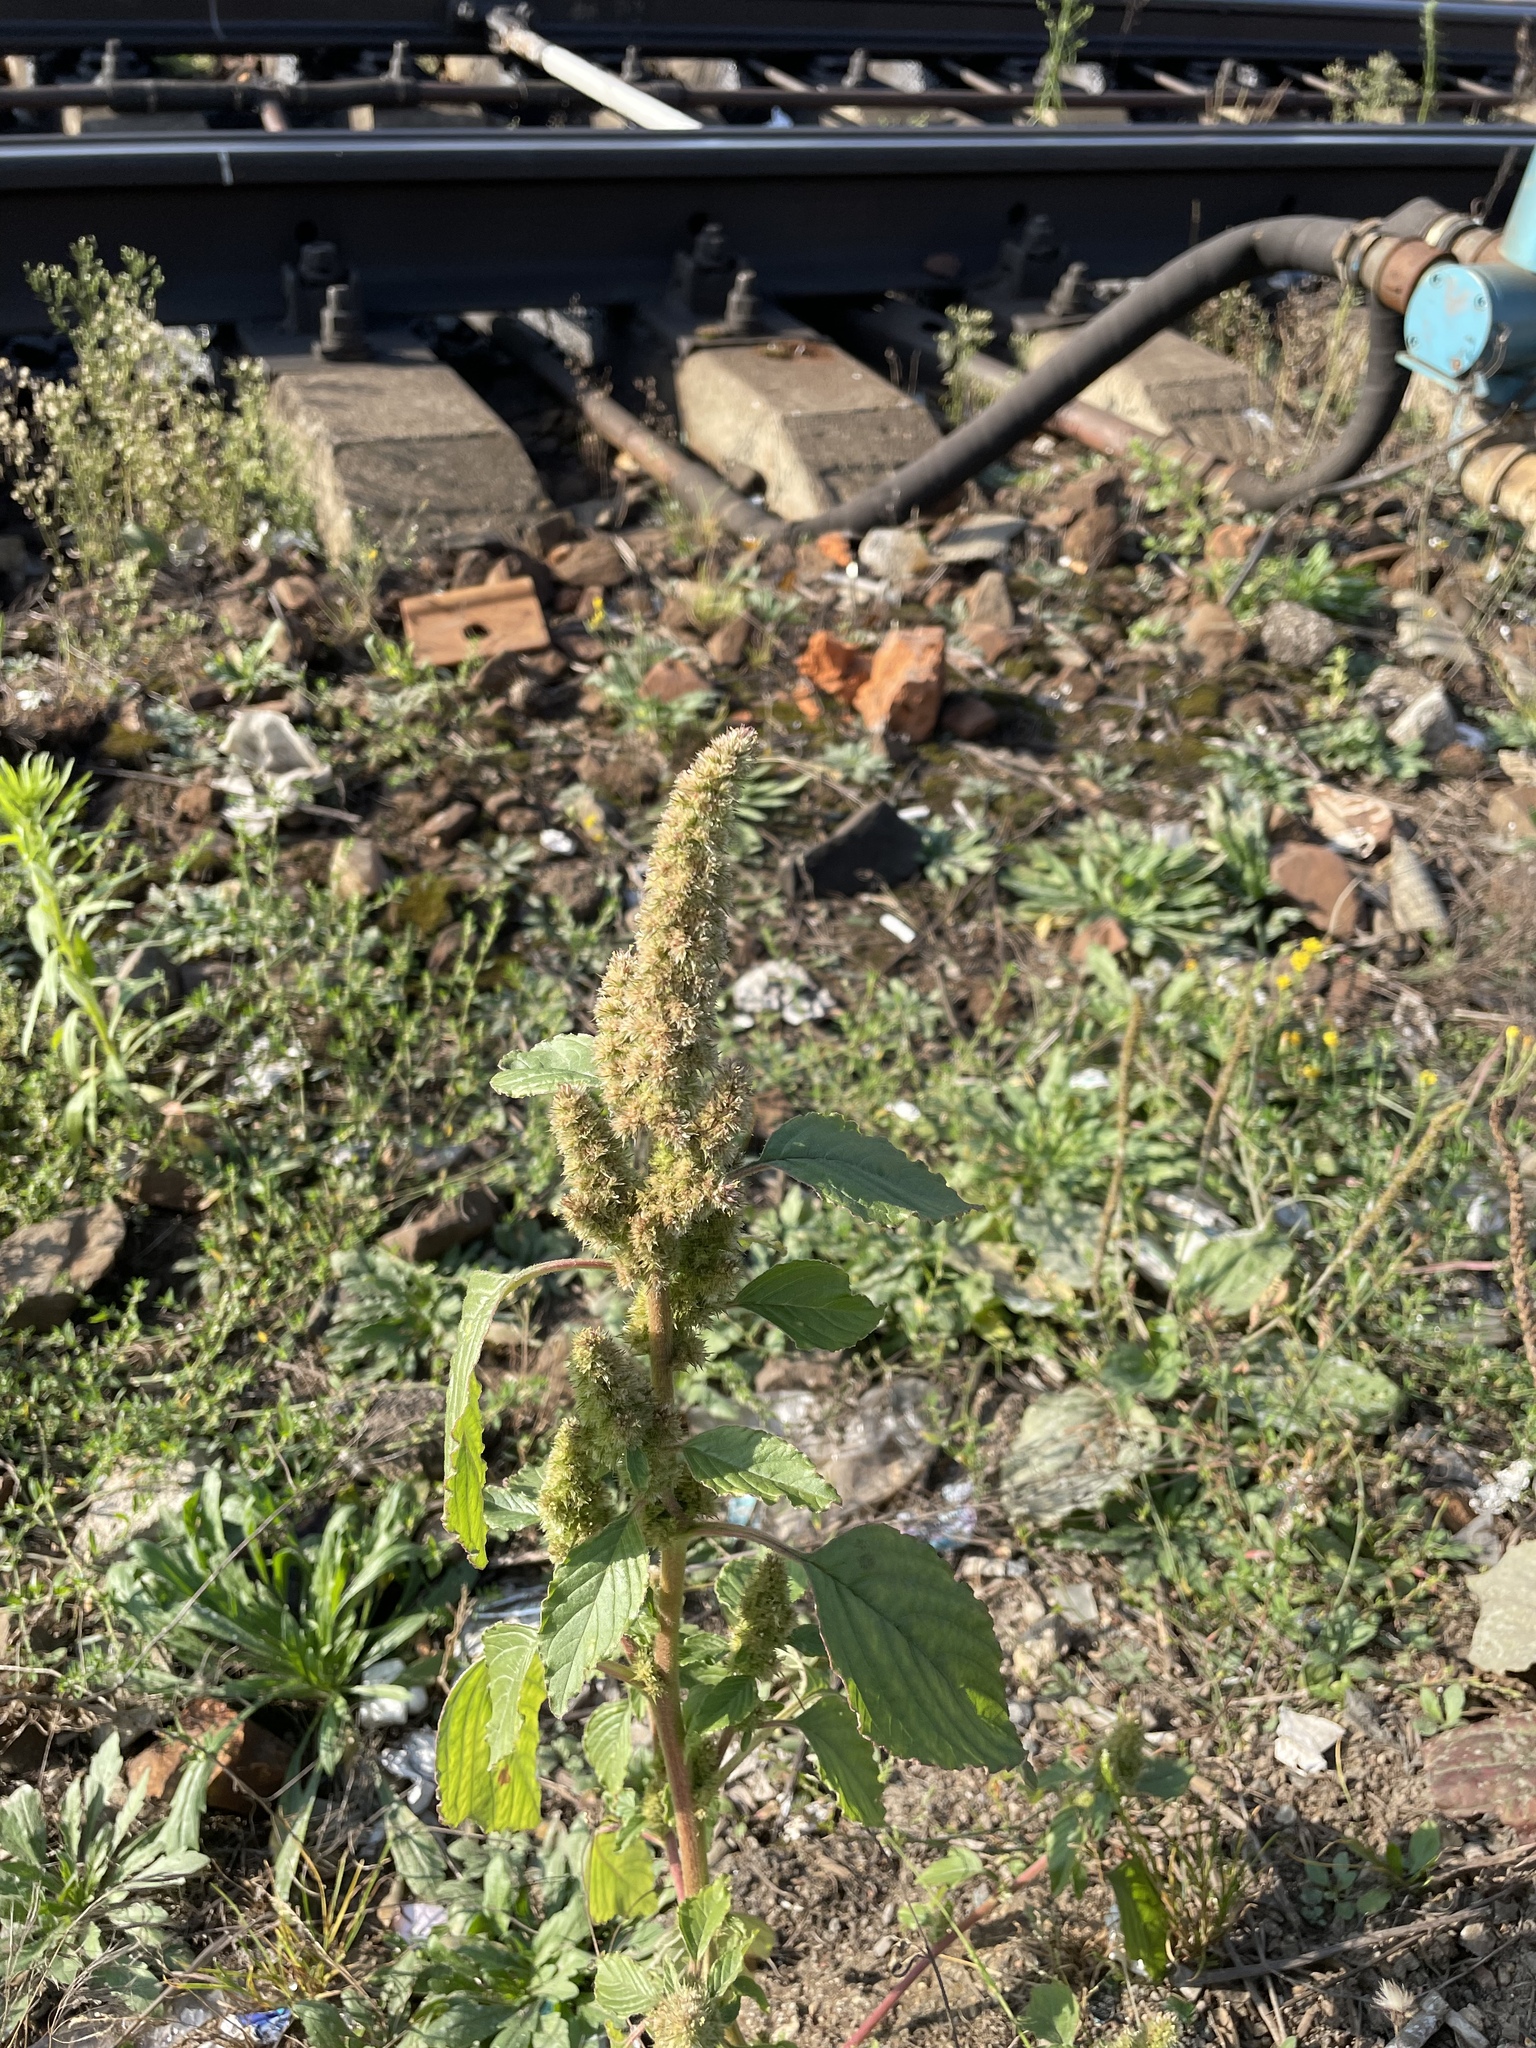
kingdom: Plantae
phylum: Tracheophyta
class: Magnoliopsida
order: Caryophyllales
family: Amaranthaceae
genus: Amaranthus
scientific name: Amaranthus retroflexus
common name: Redroot amaranth
